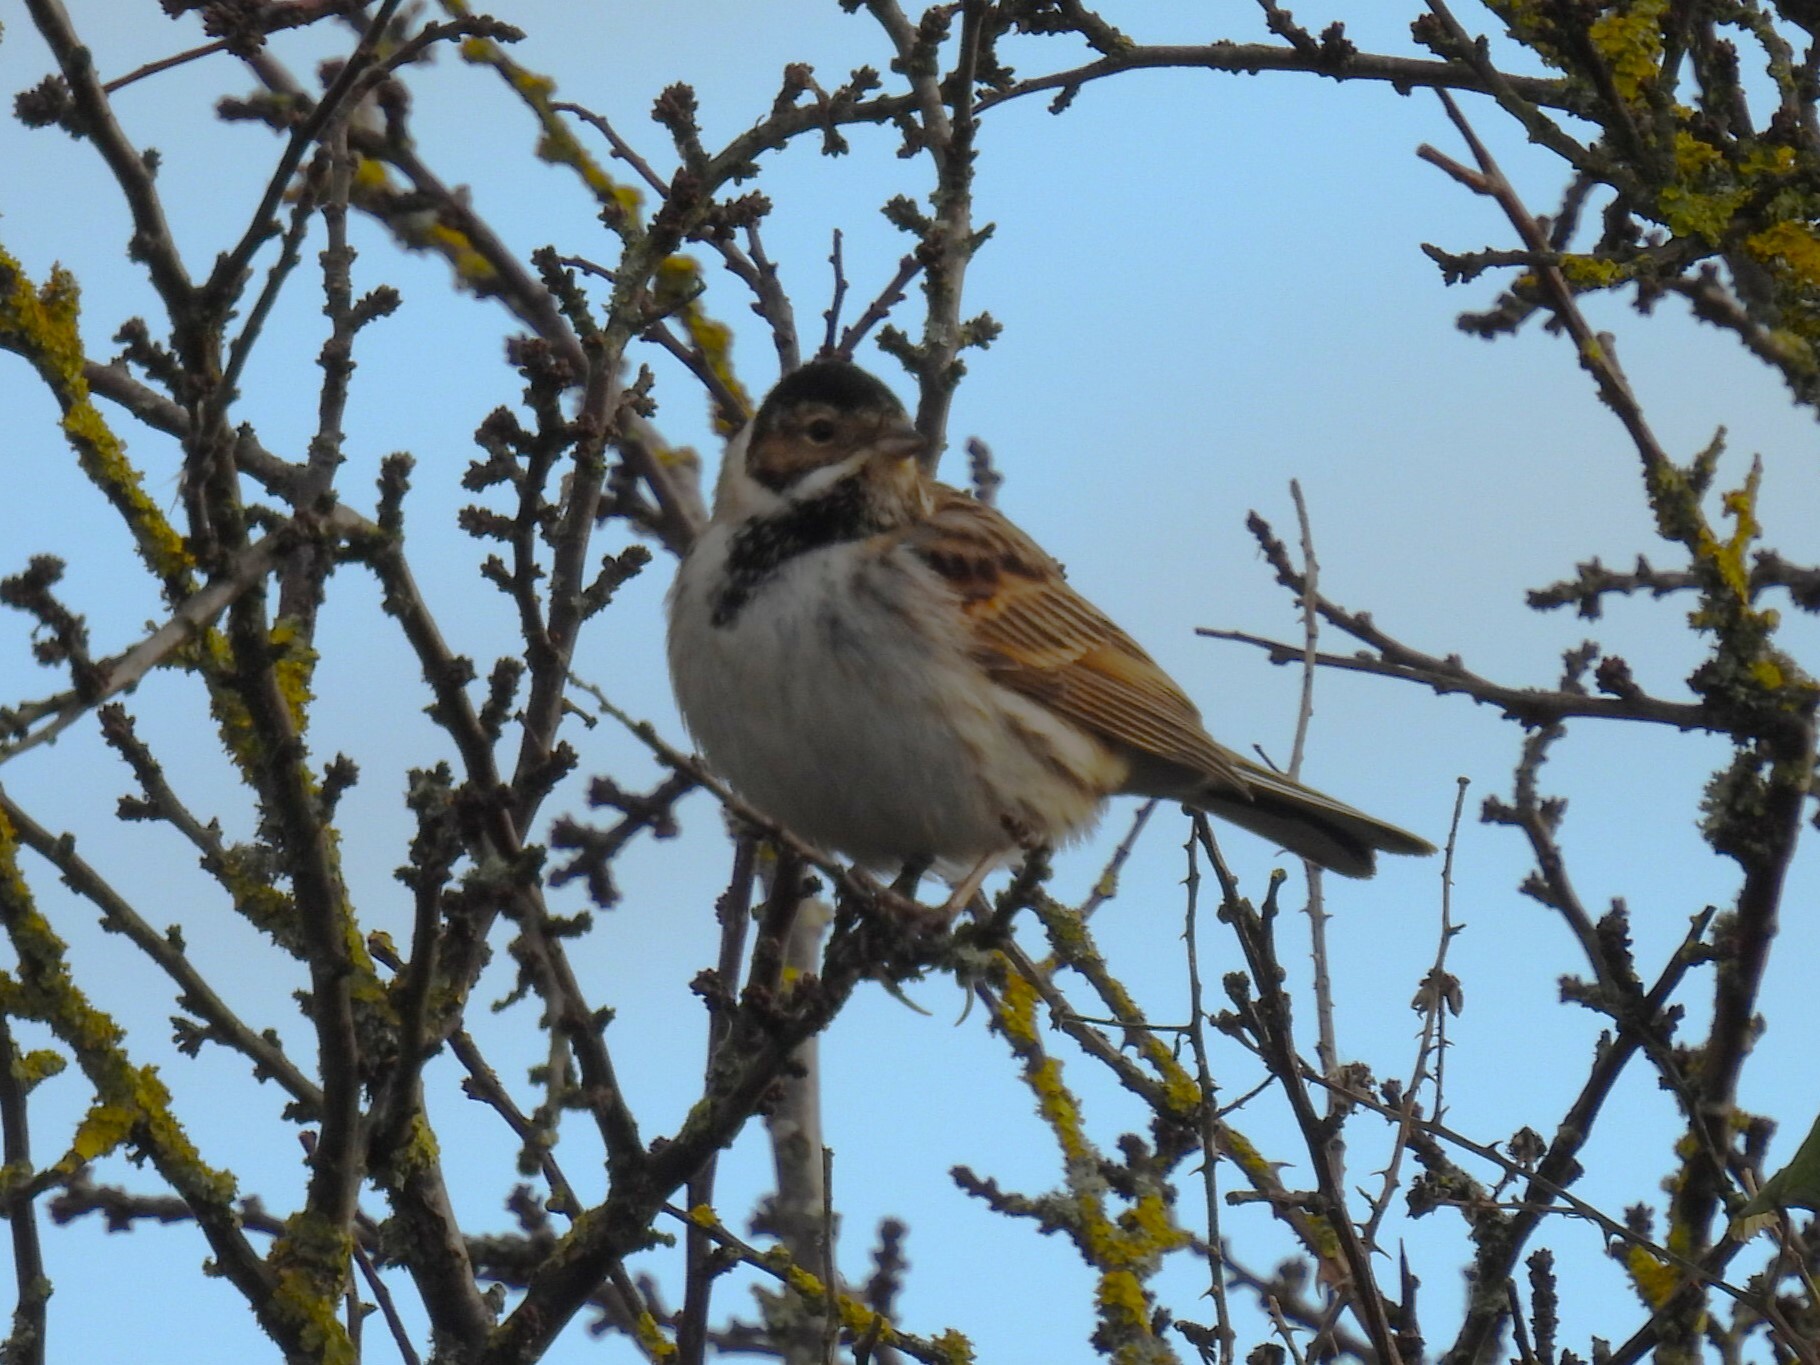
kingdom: Animalia
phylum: Chordata
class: Aves
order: Passeriformes
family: Emberizidae
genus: Emberiza
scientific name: Emberiza schoeniclus
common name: Reed bunting
